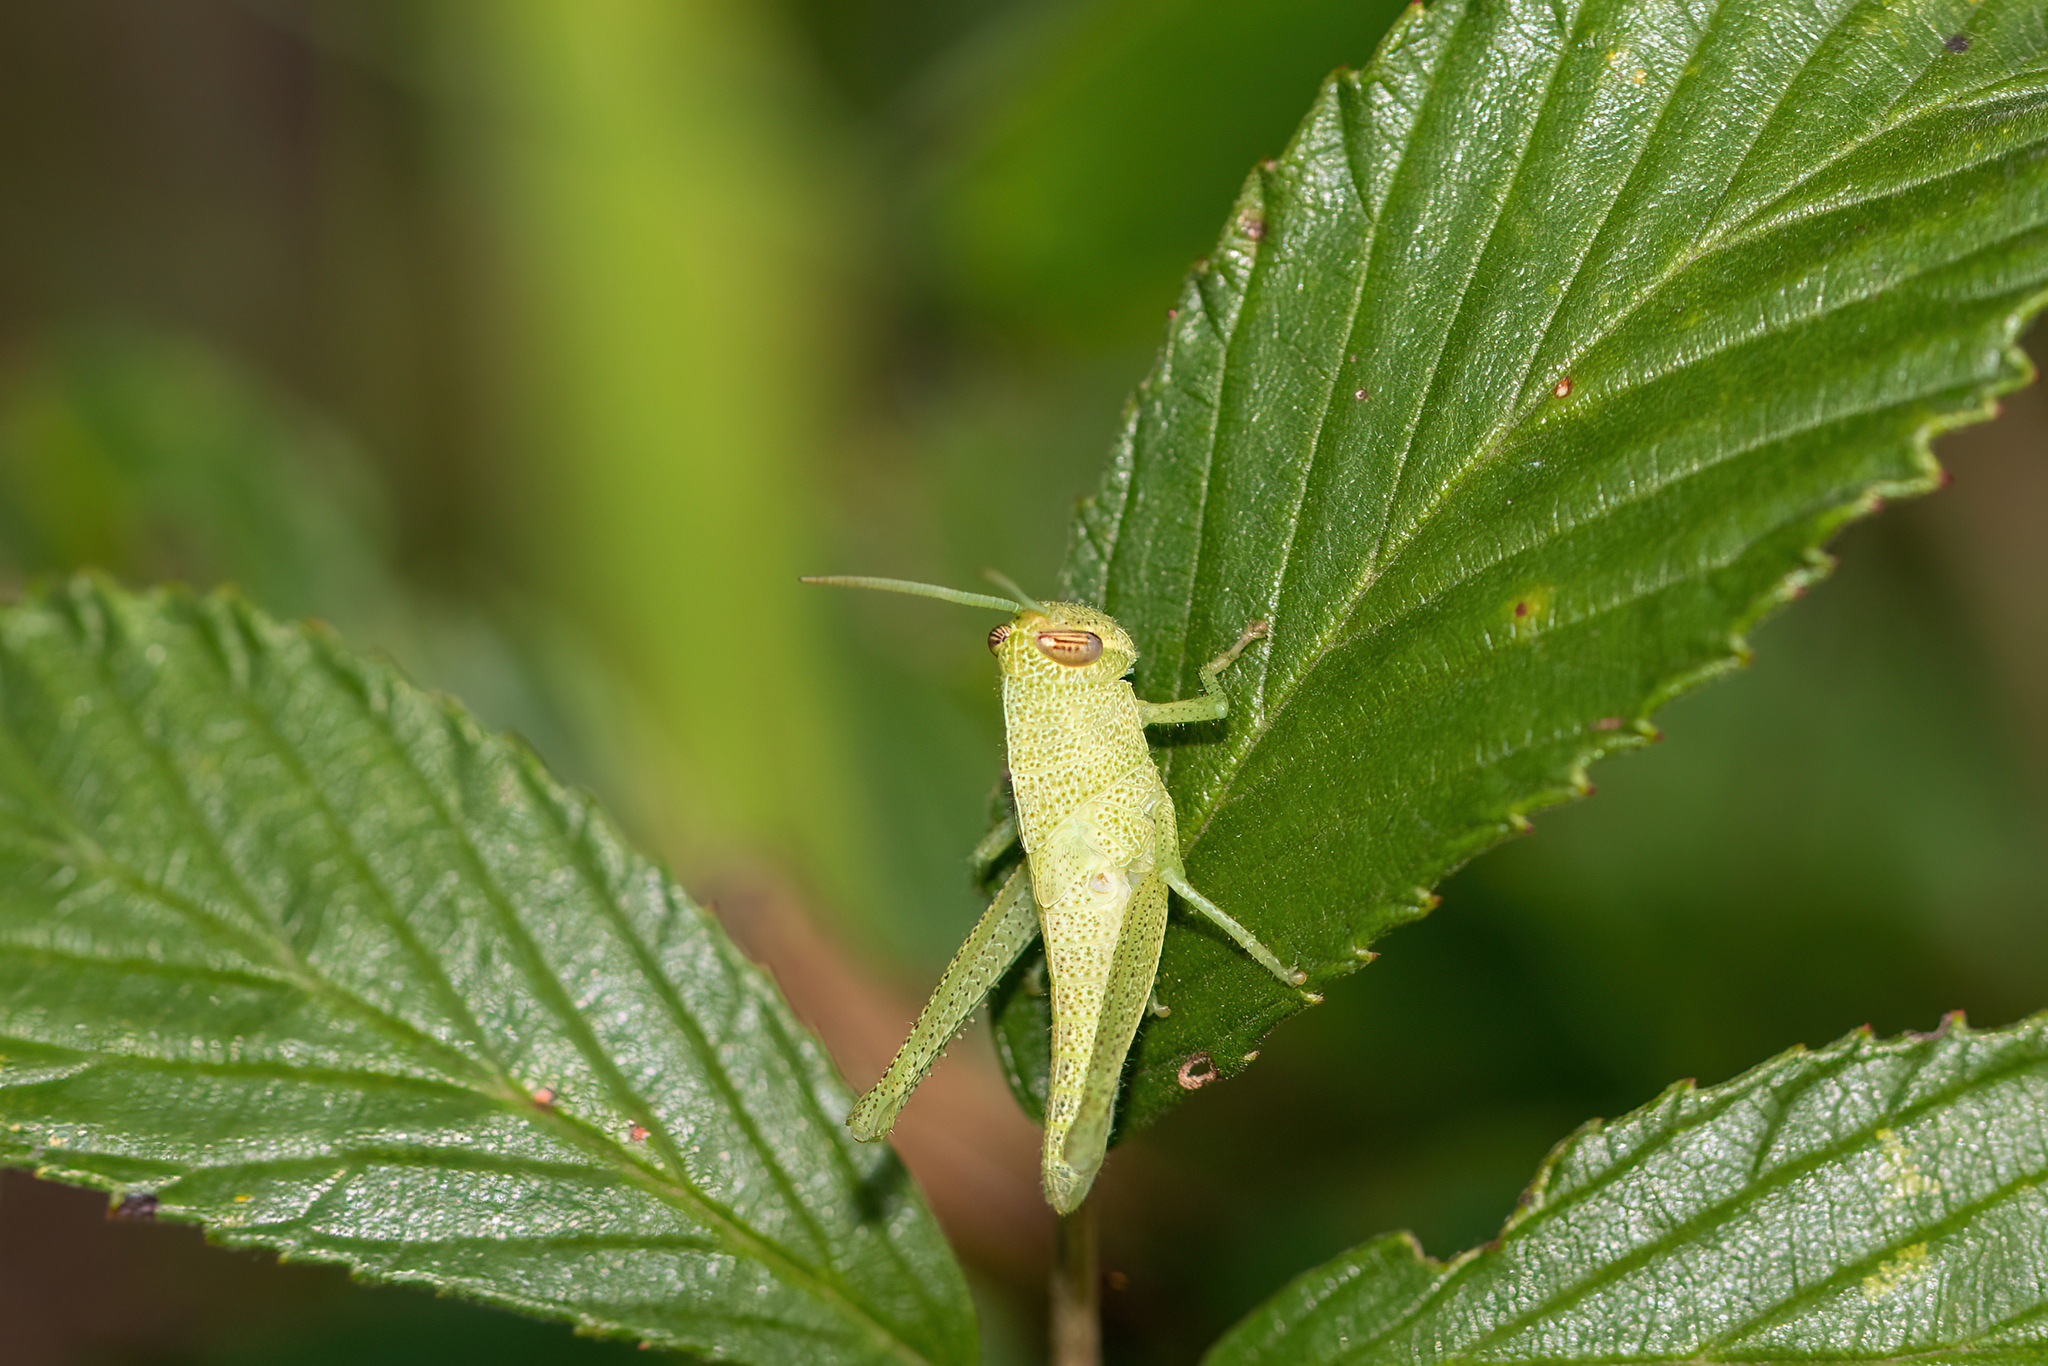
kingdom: Animalia
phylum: Arthropoda
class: Insecta
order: Orthoptera
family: Acrididae
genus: Schistocerca
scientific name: Schistocerca damnifica
